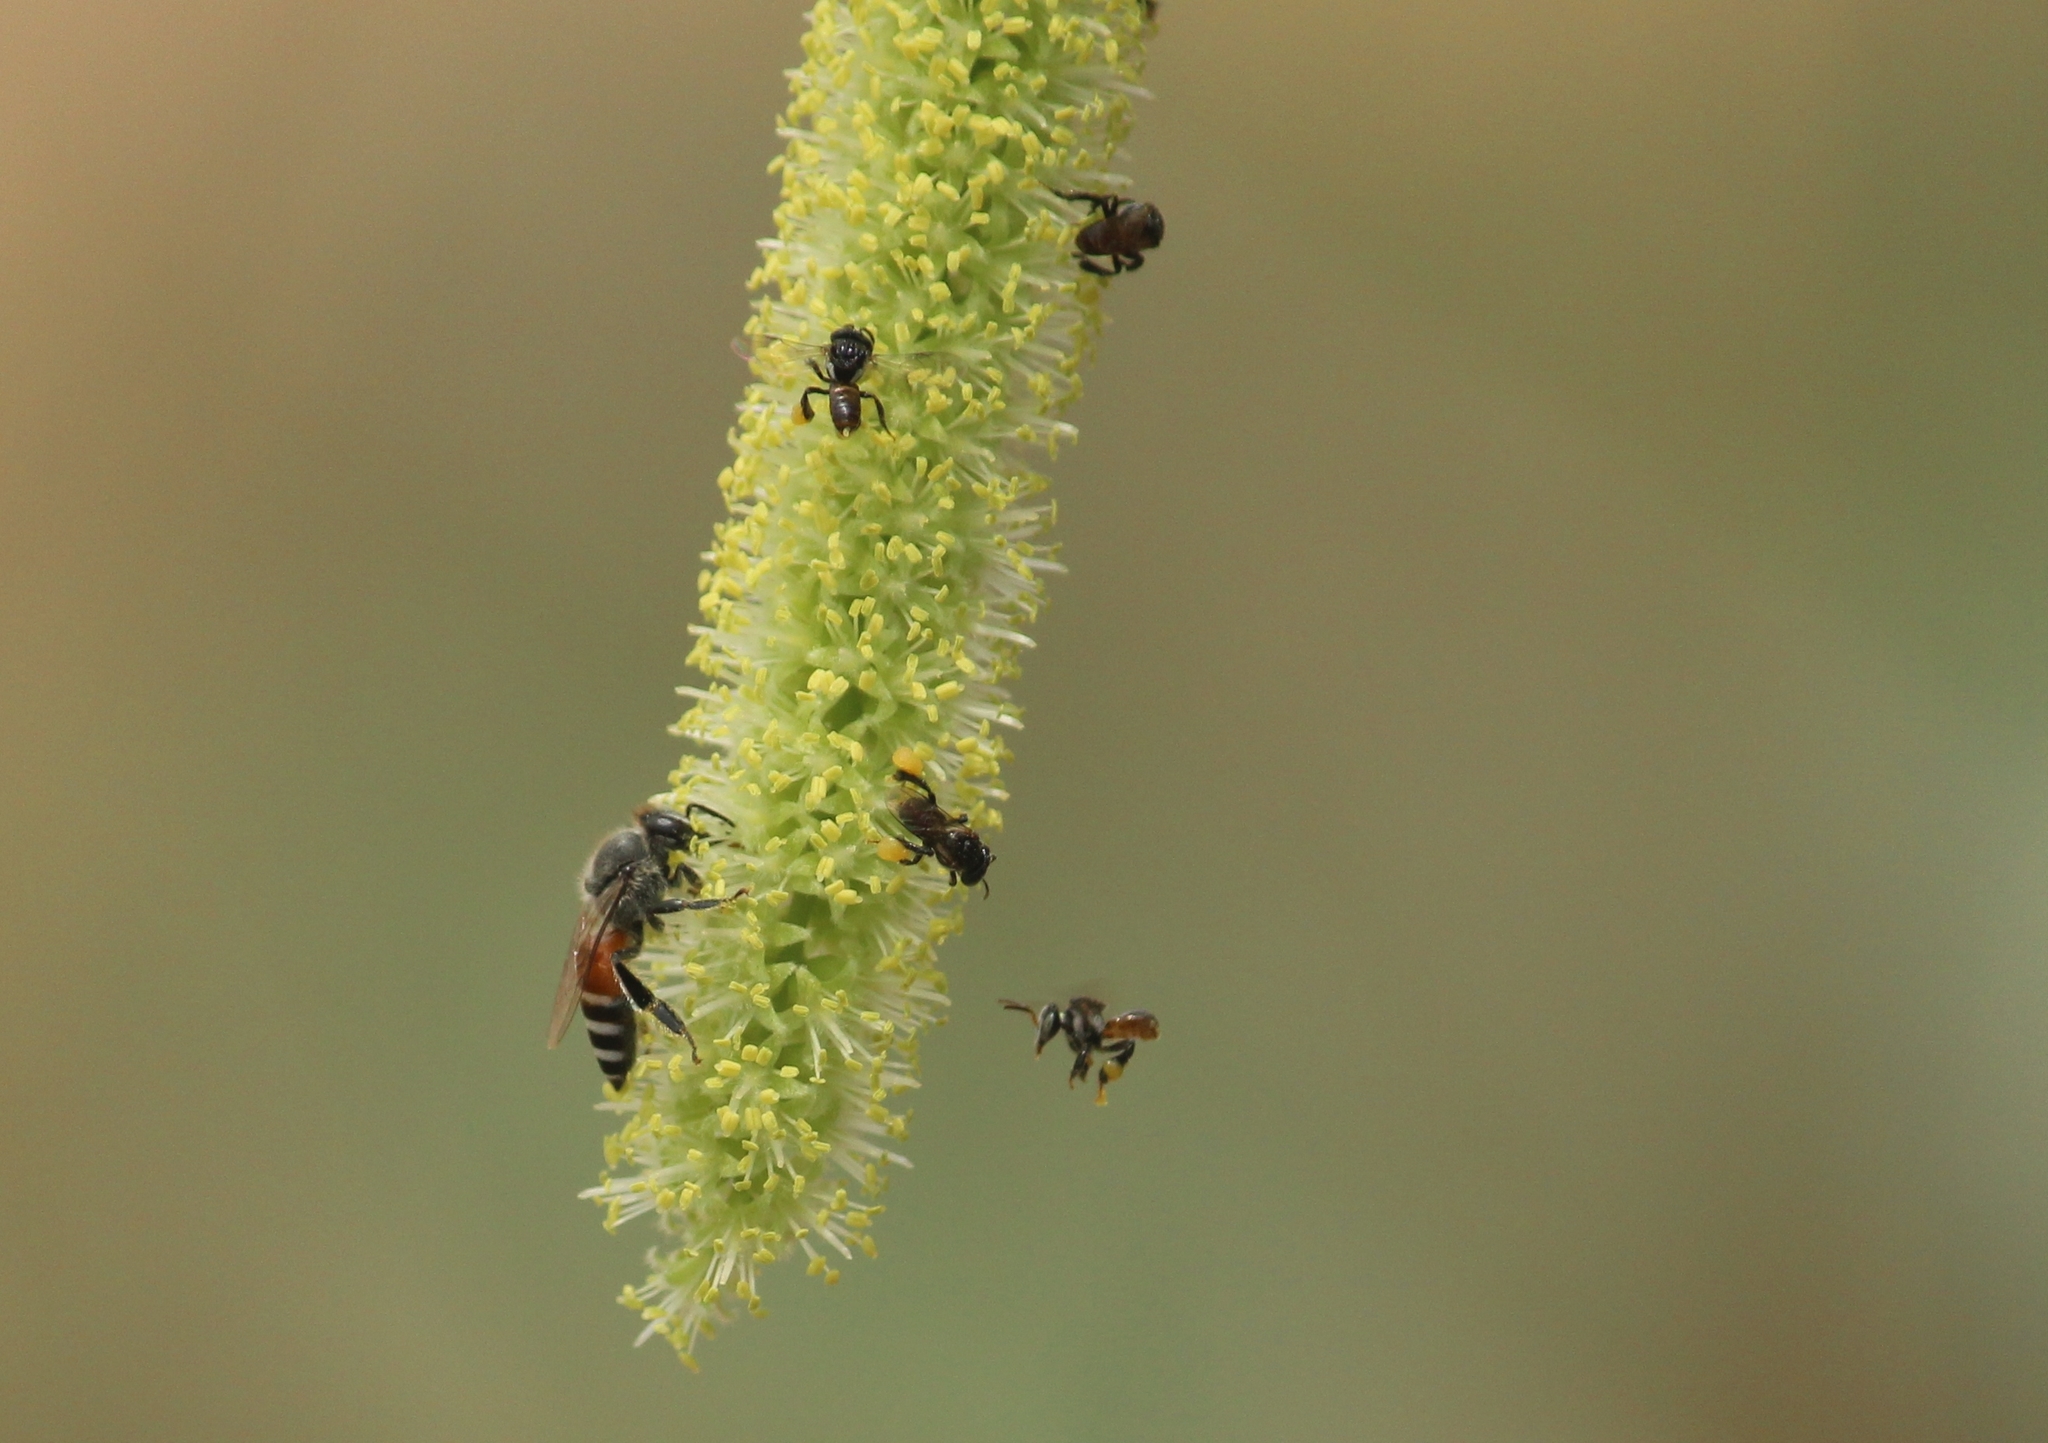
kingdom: Animalia
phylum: Arthropoda
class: Insecta
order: Hymenoptera
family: Apidae
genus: Apis
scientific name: Apis florea
